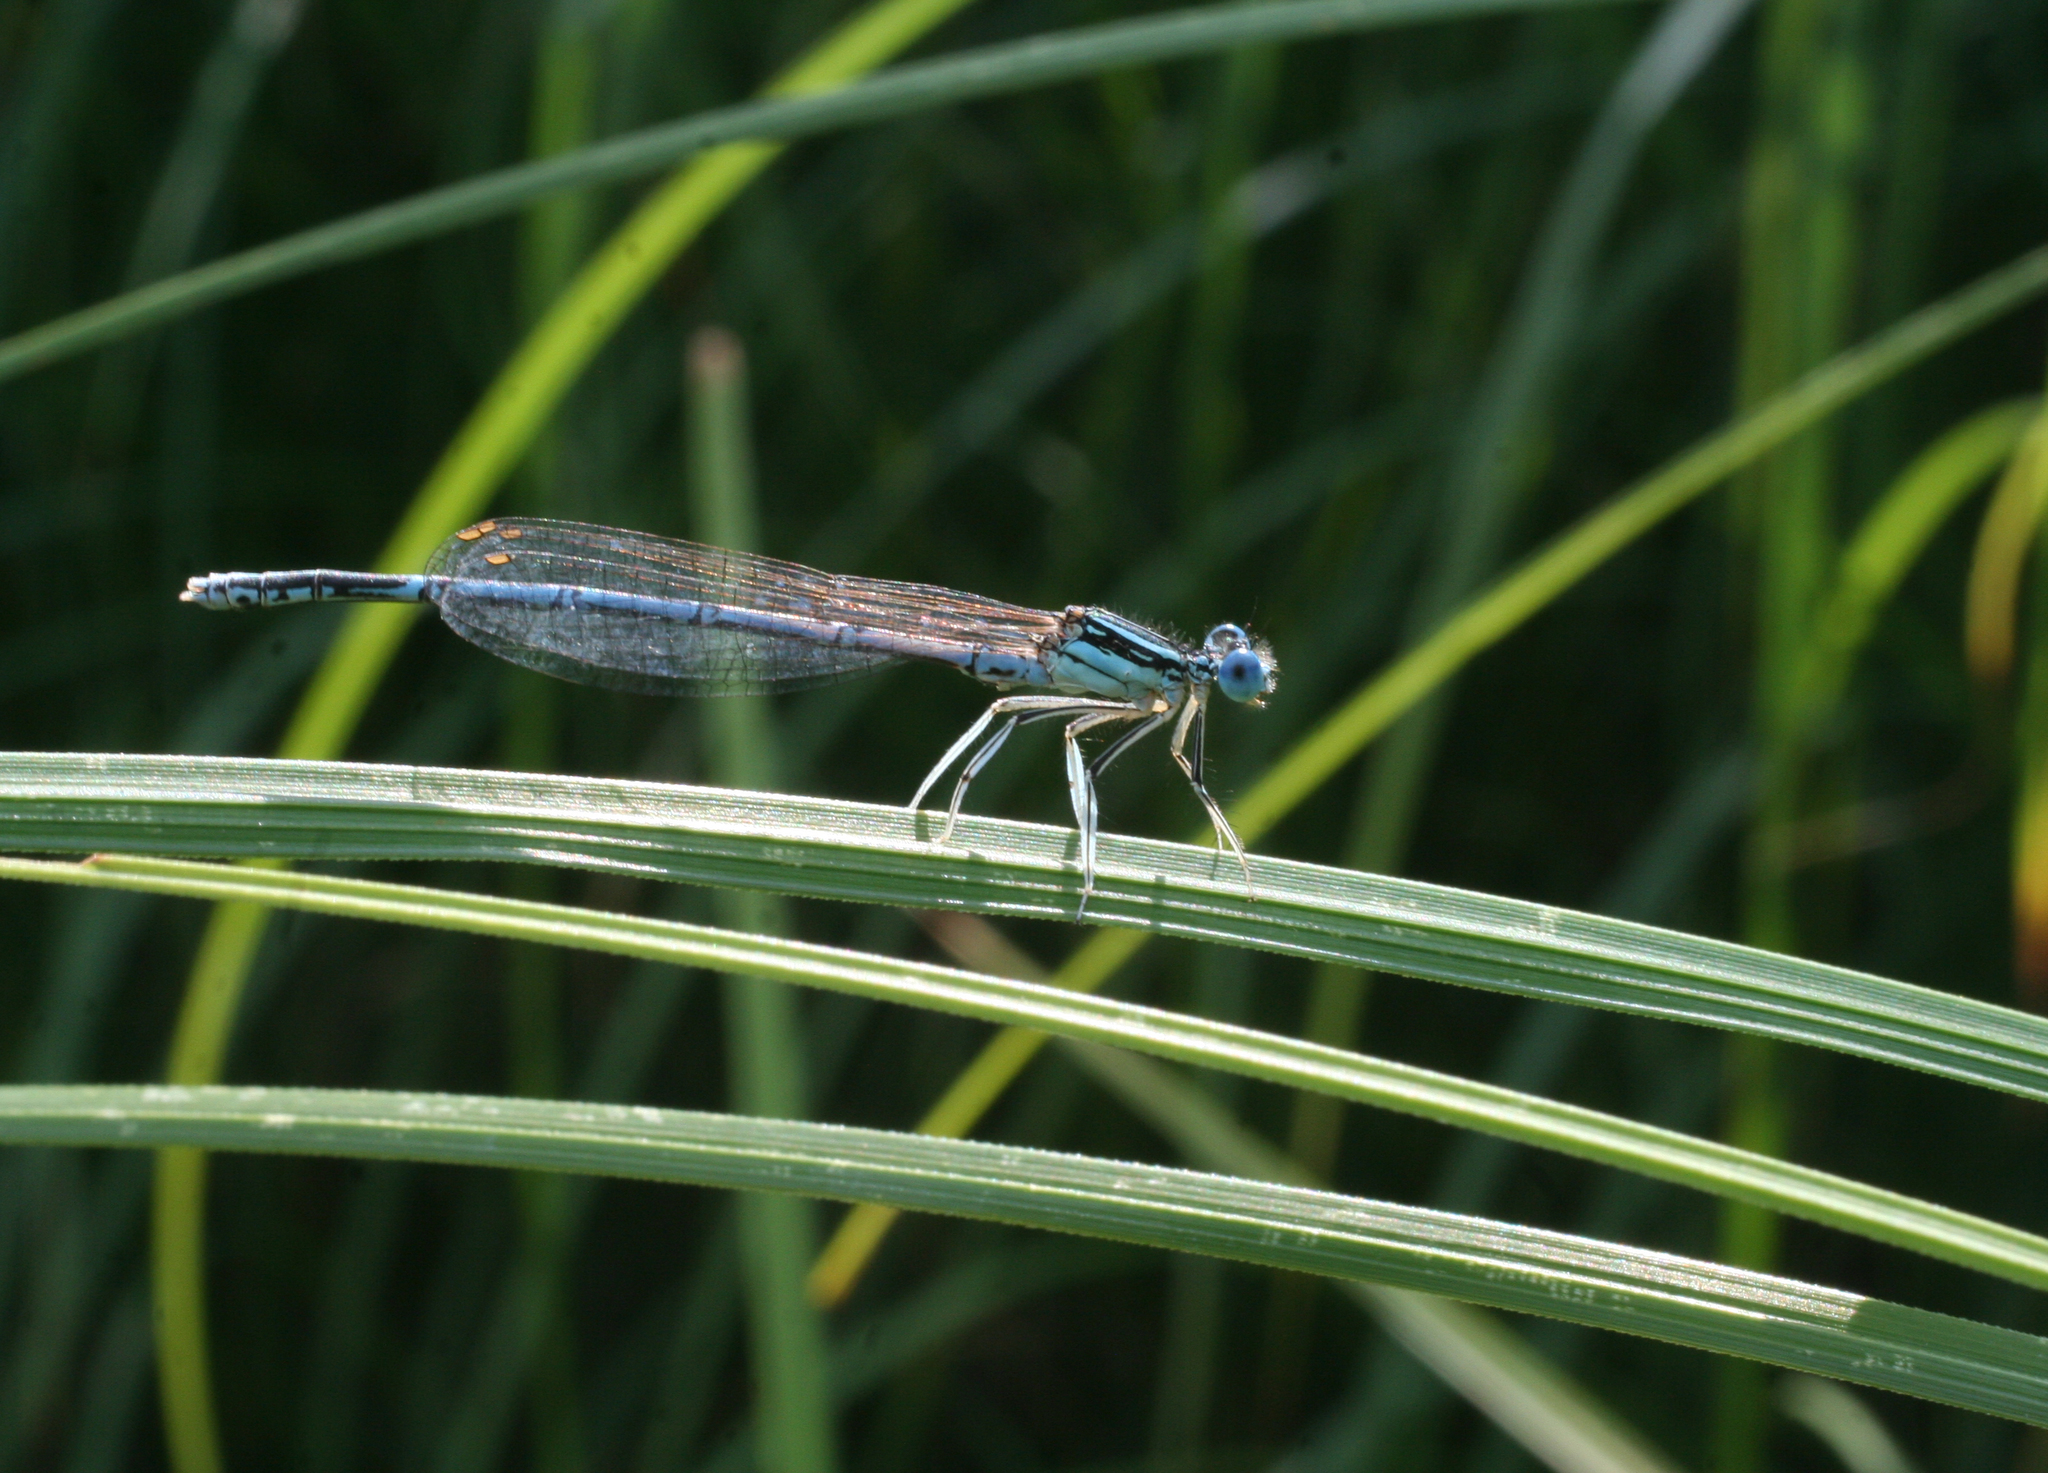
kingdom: Animalia
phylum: Arthropoda
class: Insecta
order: Odonata
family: Platycnemididae
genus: Platycnemis
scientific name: Platycnemis pennipes
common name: White-legged damselfly
